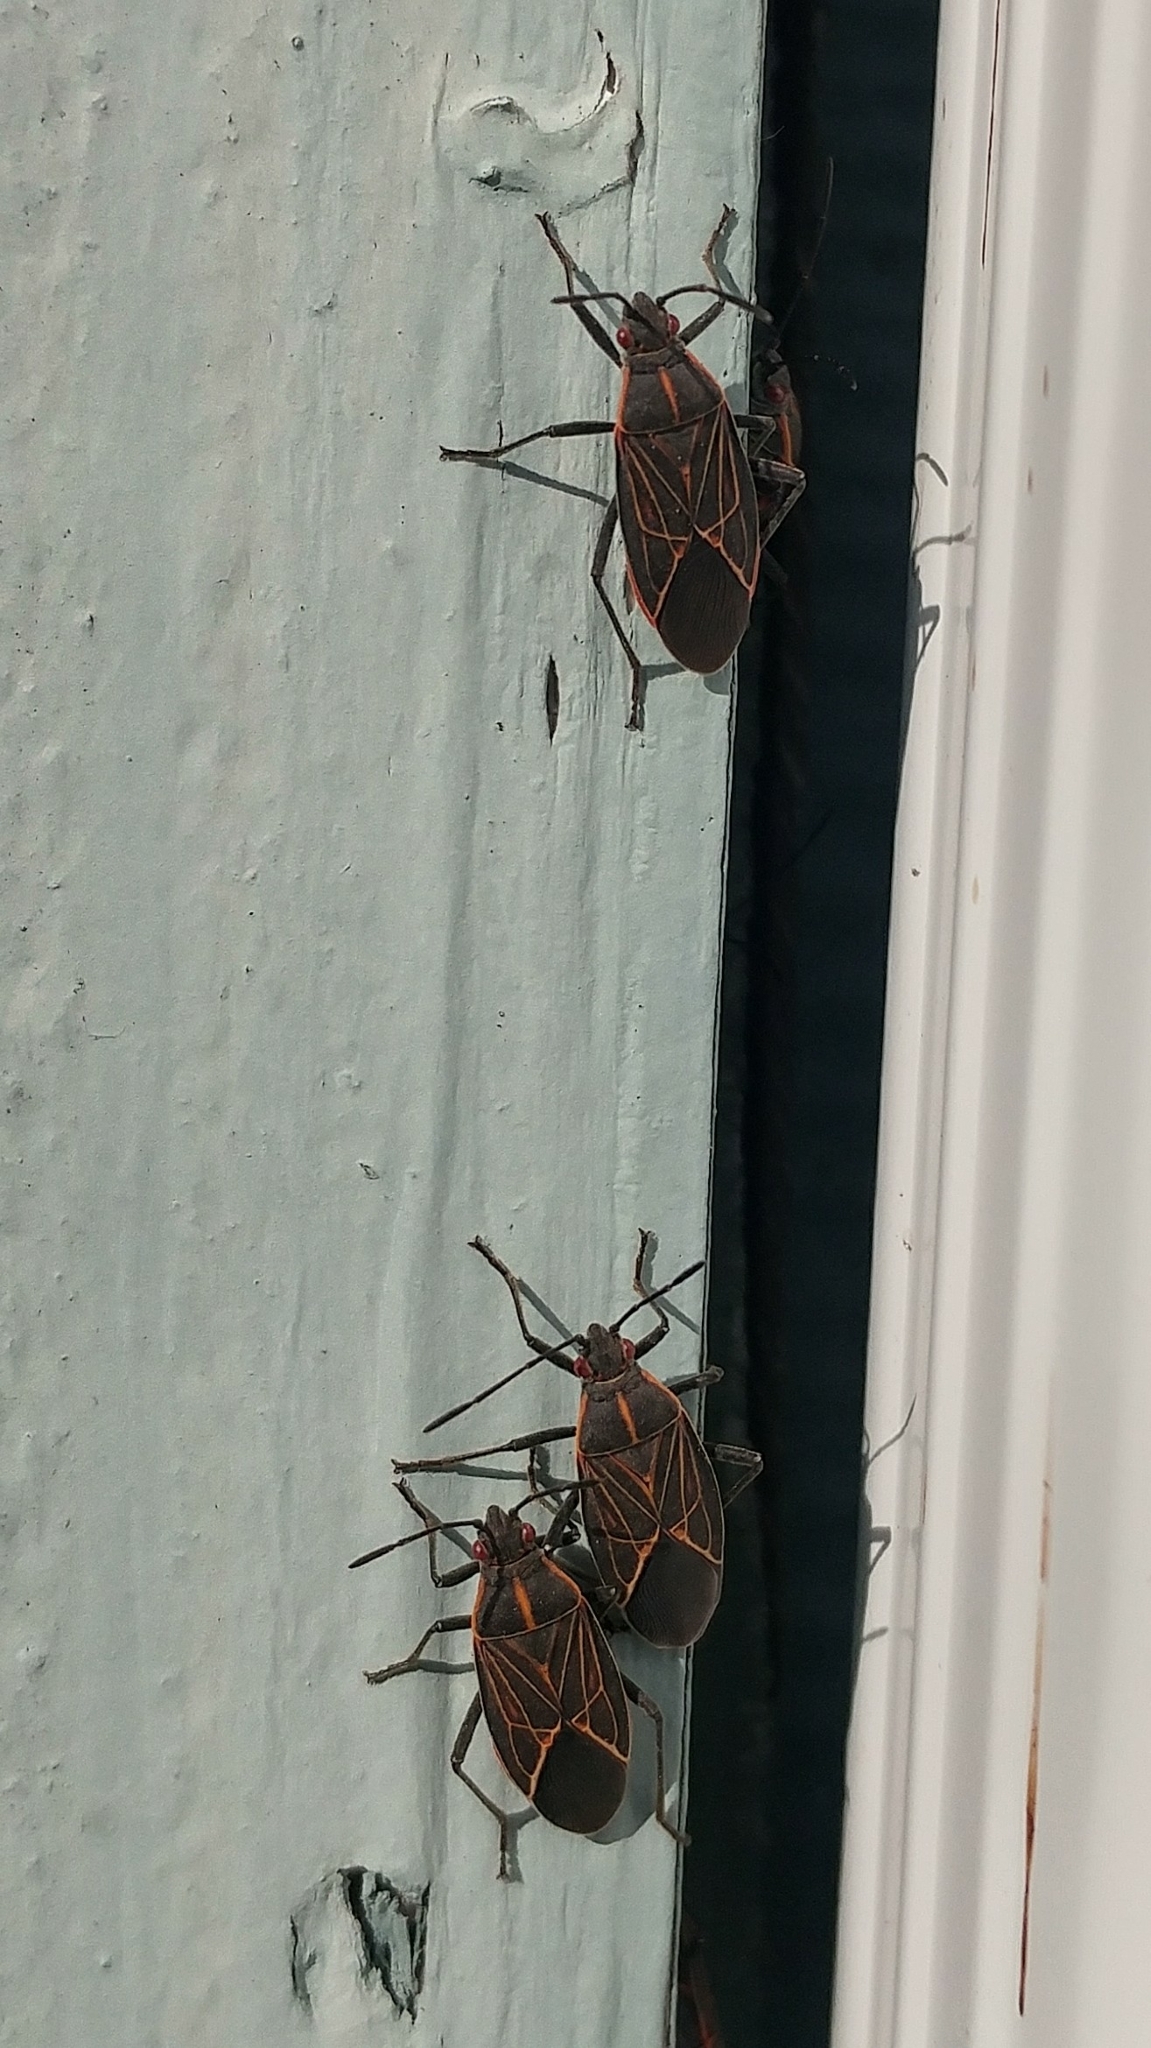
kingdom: Animalia
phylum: Arthropoda
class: Insecta
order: Hemiptera
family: Rhopalidae
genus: Boisea
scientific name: Boisea rubrolineata
